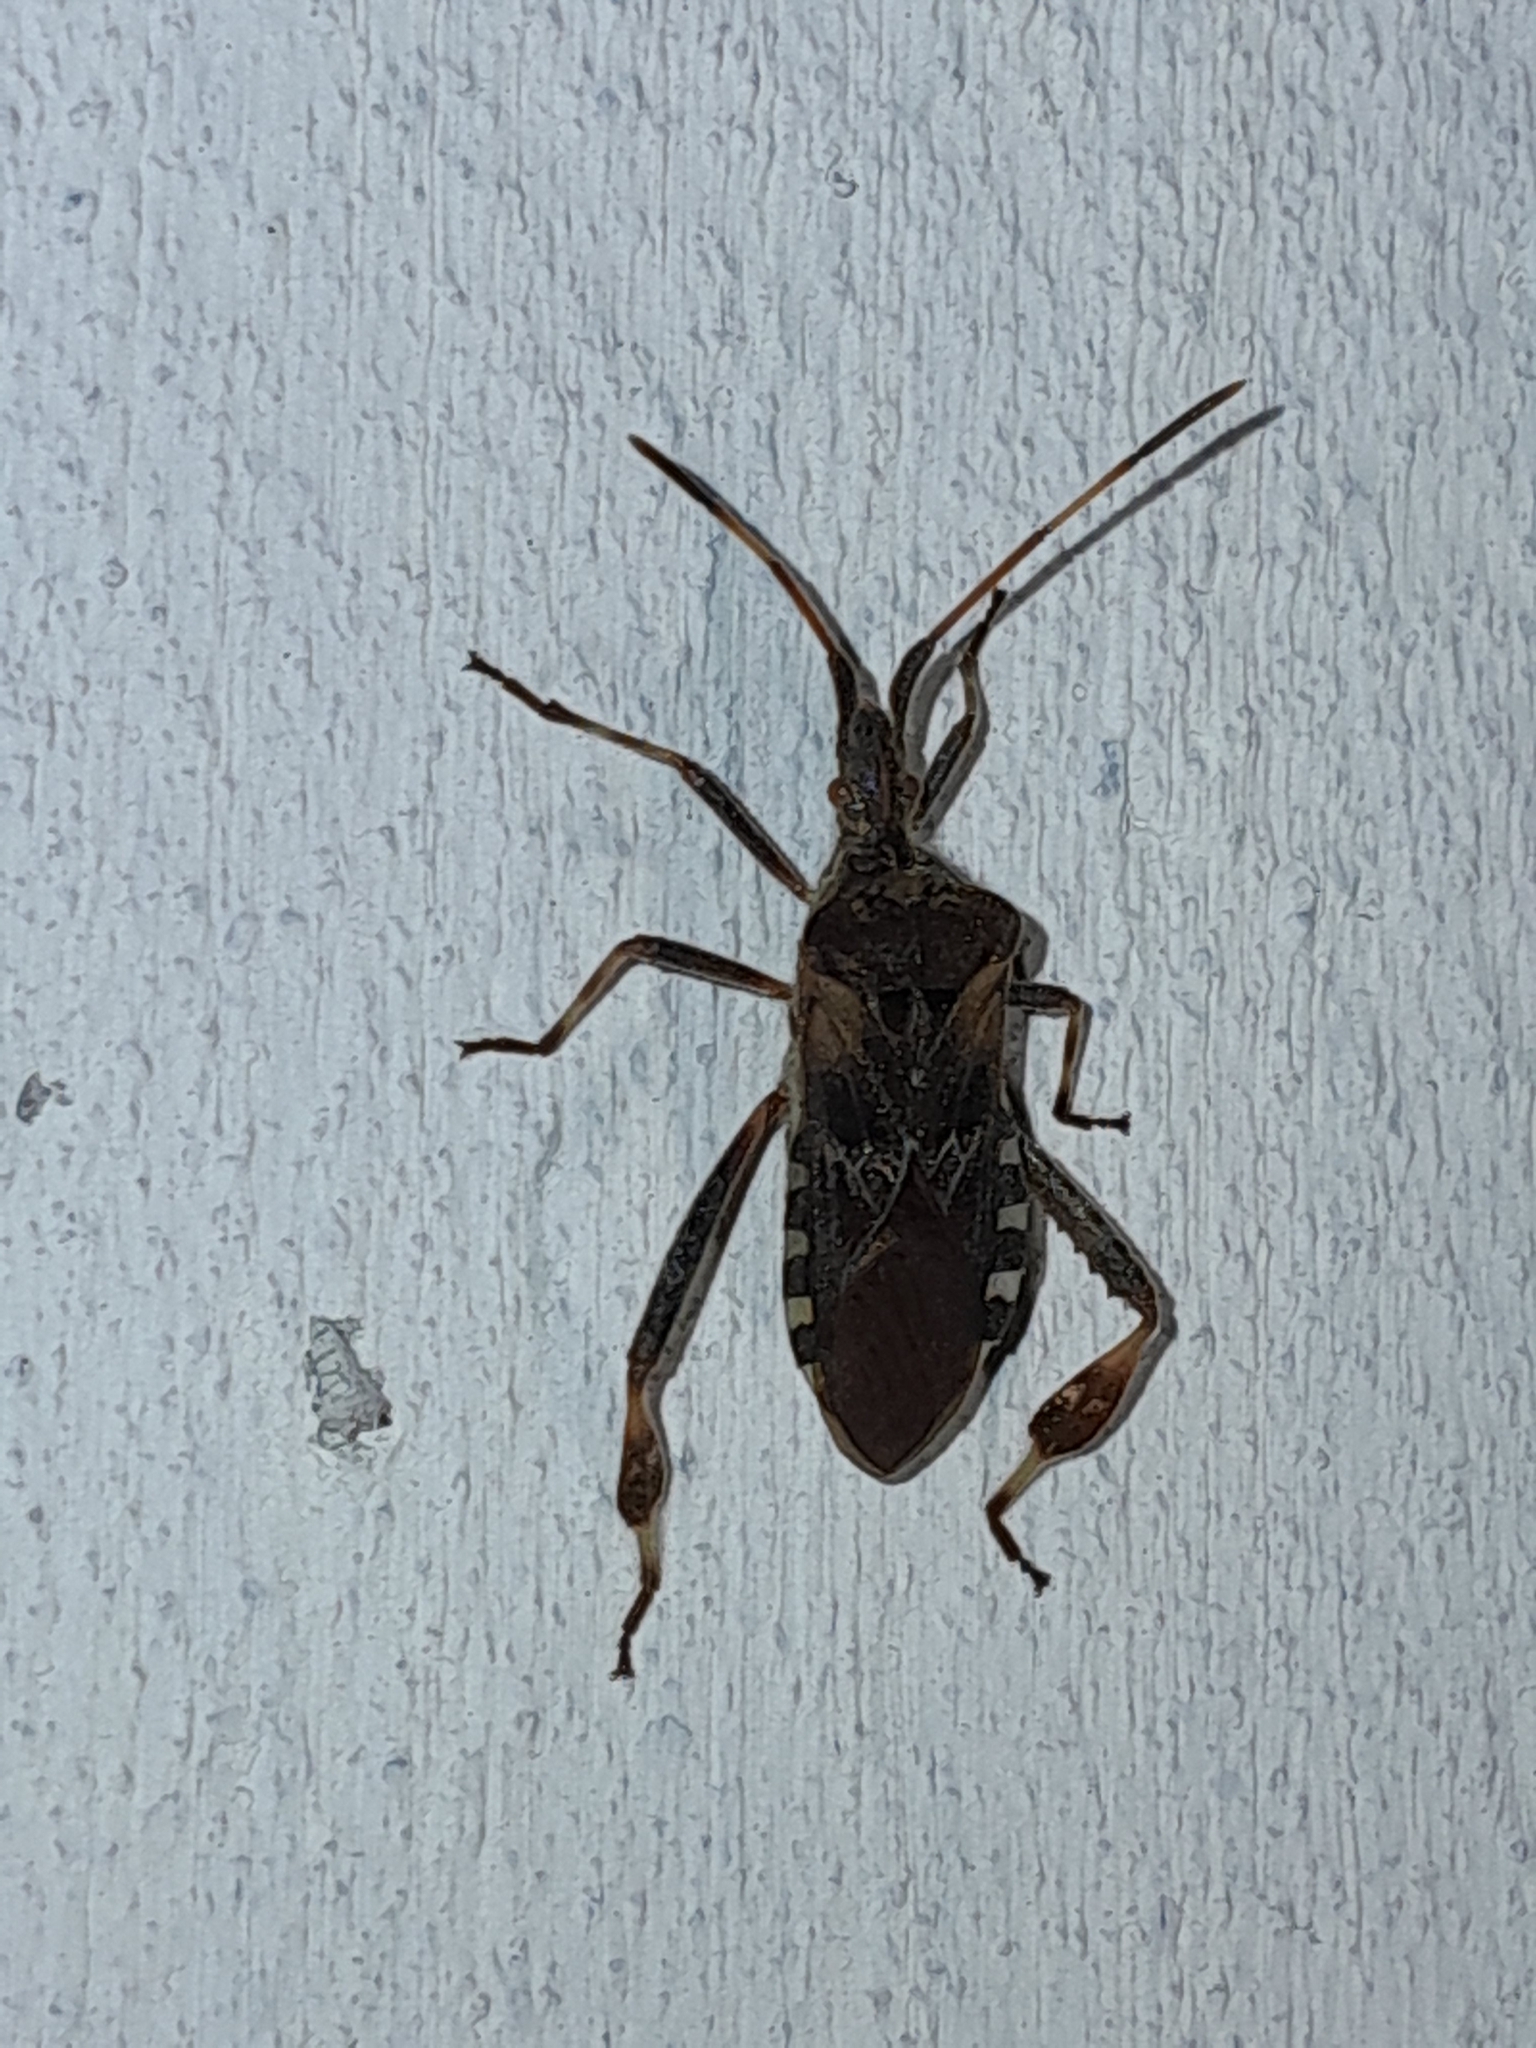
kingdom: Animalia
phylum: Arthropoda
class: Insecta
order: Hemiptera
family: Coreidae
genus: Leptoglossus
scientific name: Leptoglossus occidentalis
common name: Western conifer-seed bug
